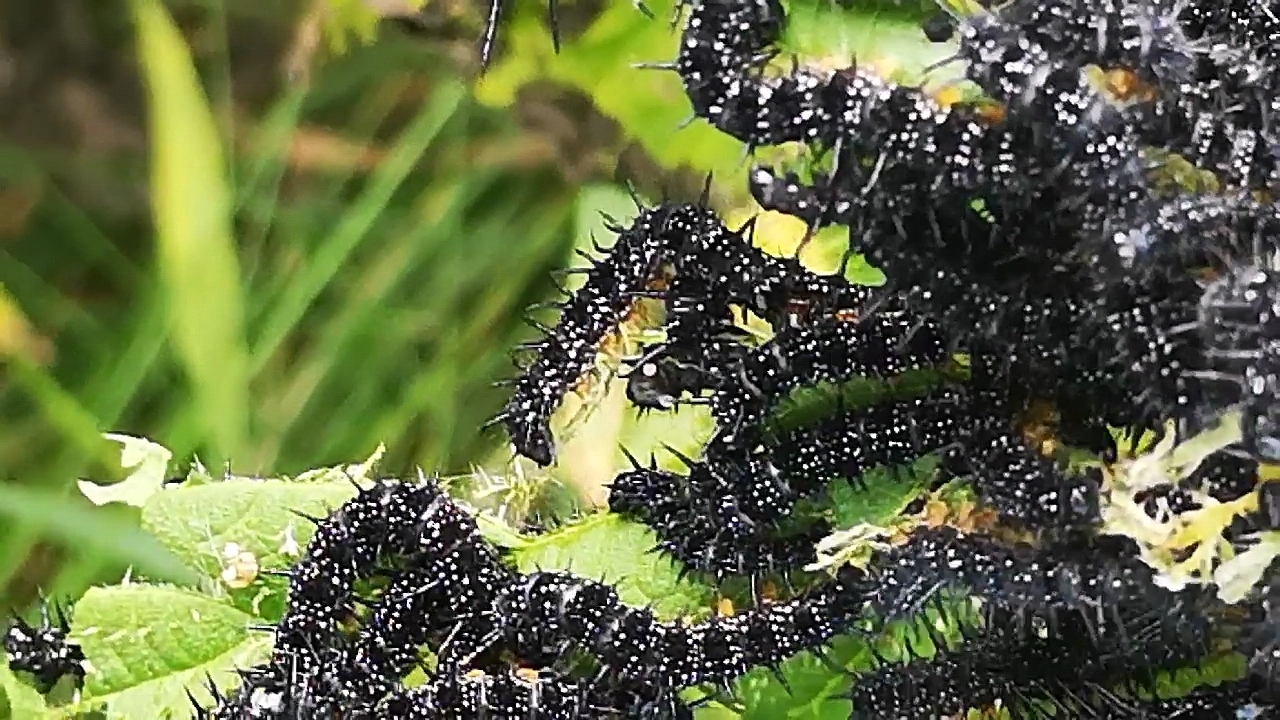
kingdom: Animalia
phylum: Arthropoda
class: Insecta
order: Lepidoptera
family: Nymphalidae
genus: Aglais
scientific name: Aglais io
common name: Peacock
